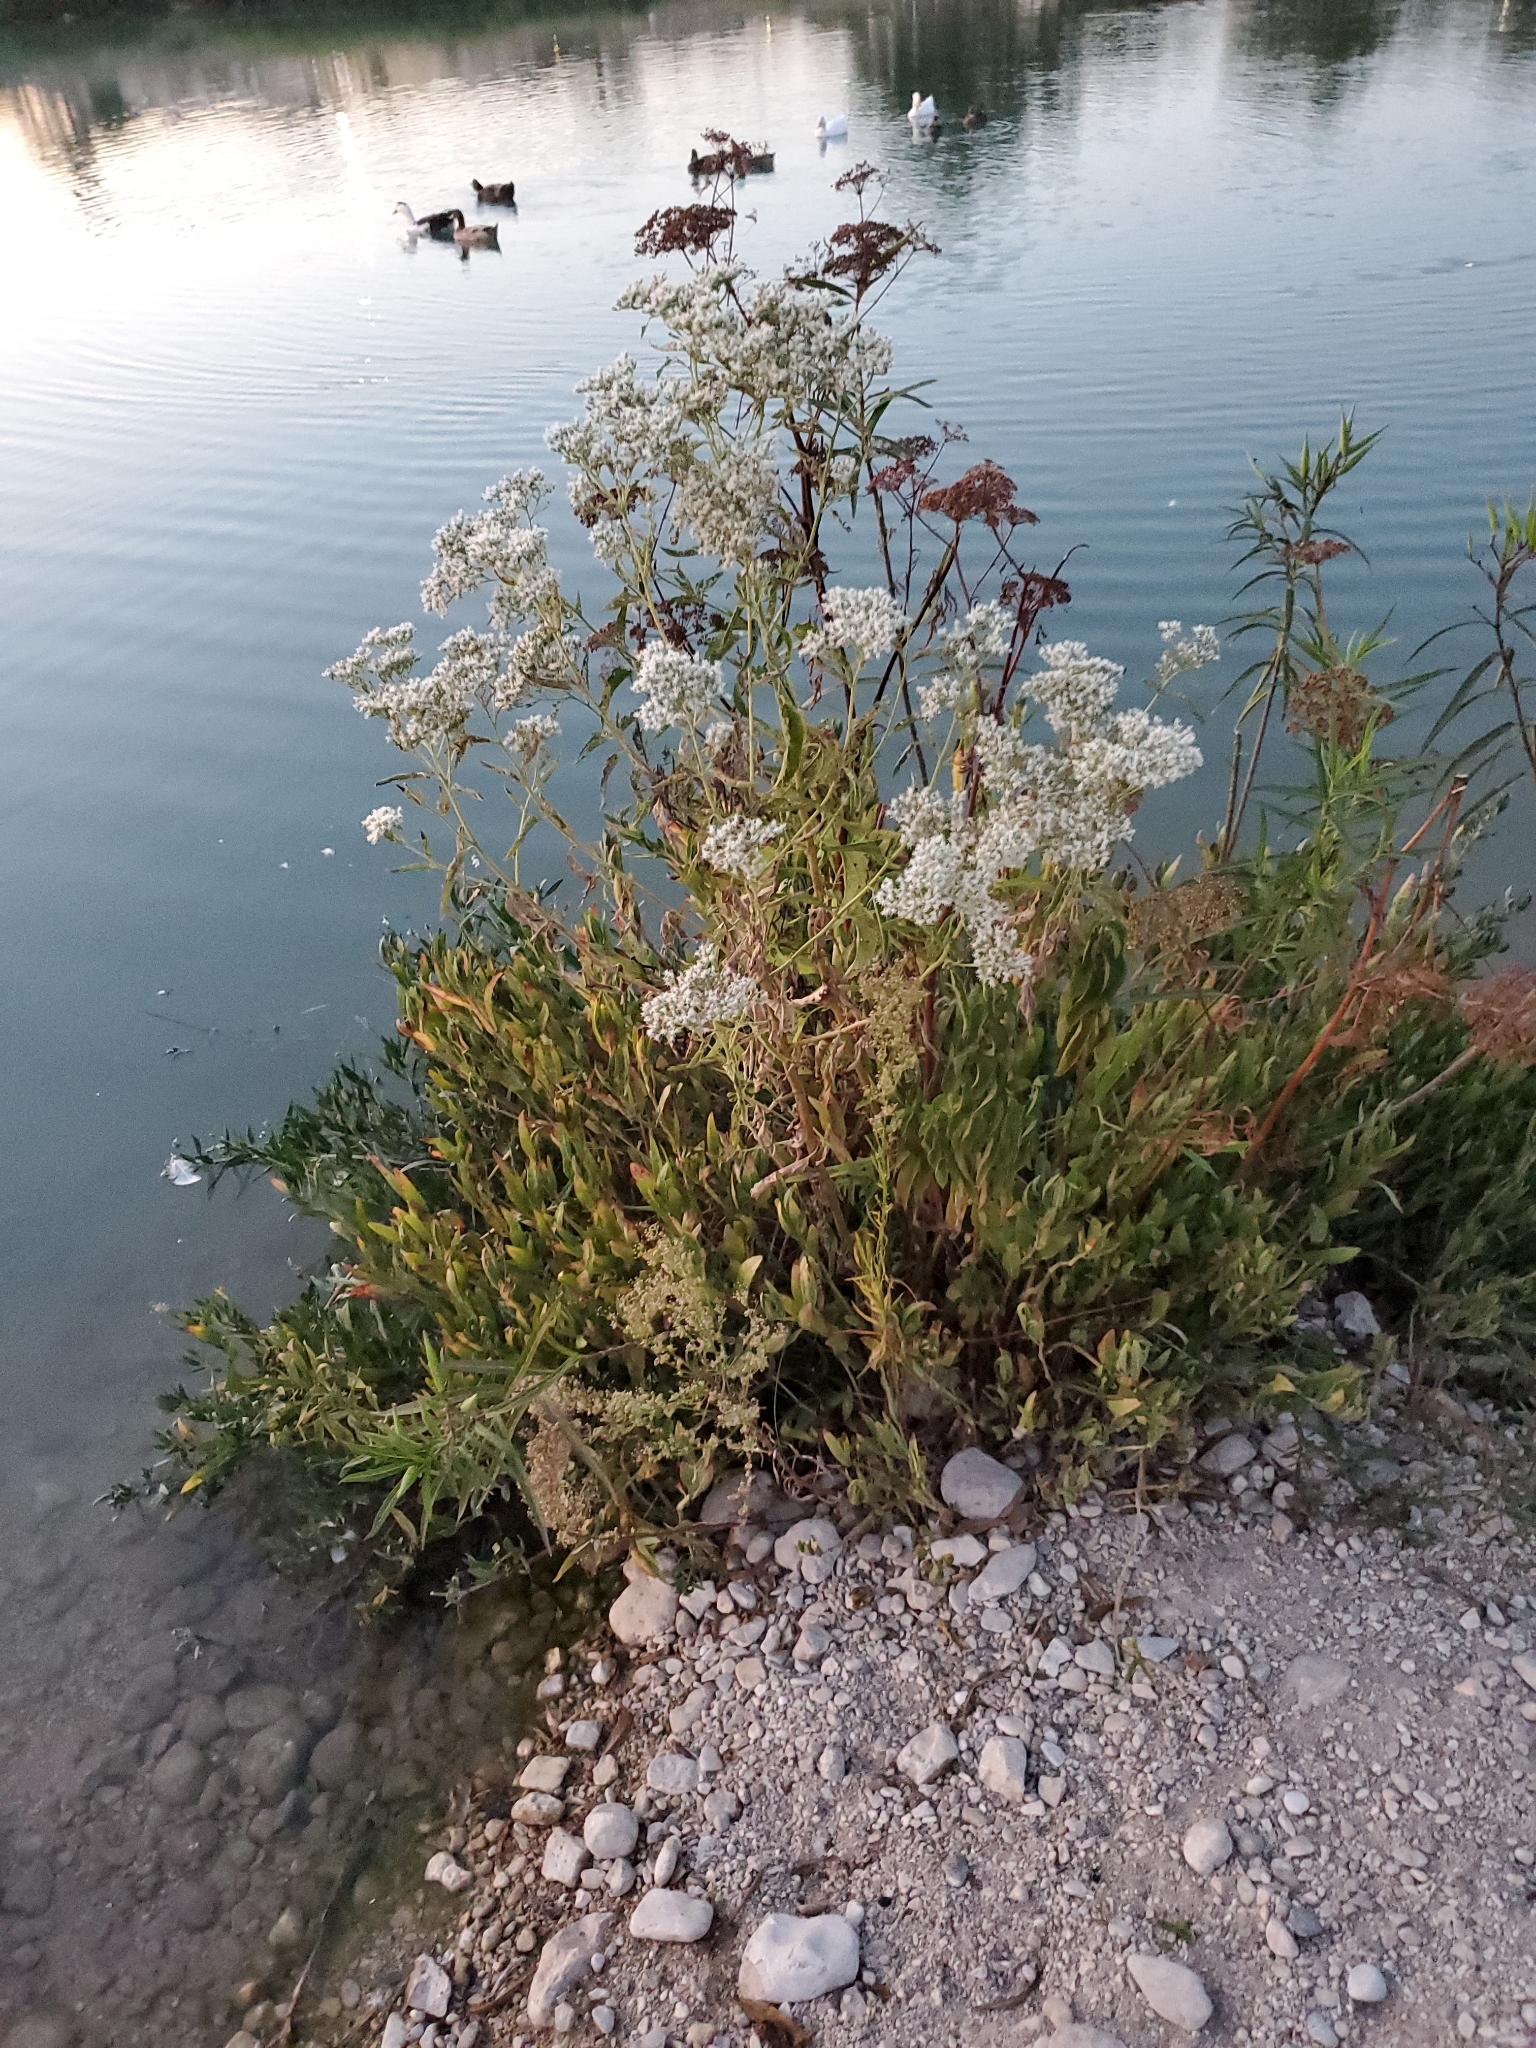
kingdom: Plantae
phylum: Tracheophyta
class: Magnoliopsida
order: Asterales
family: Asteraceae
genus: Eupatorium
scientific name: Eupatorium serotinum
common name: Late boneset
